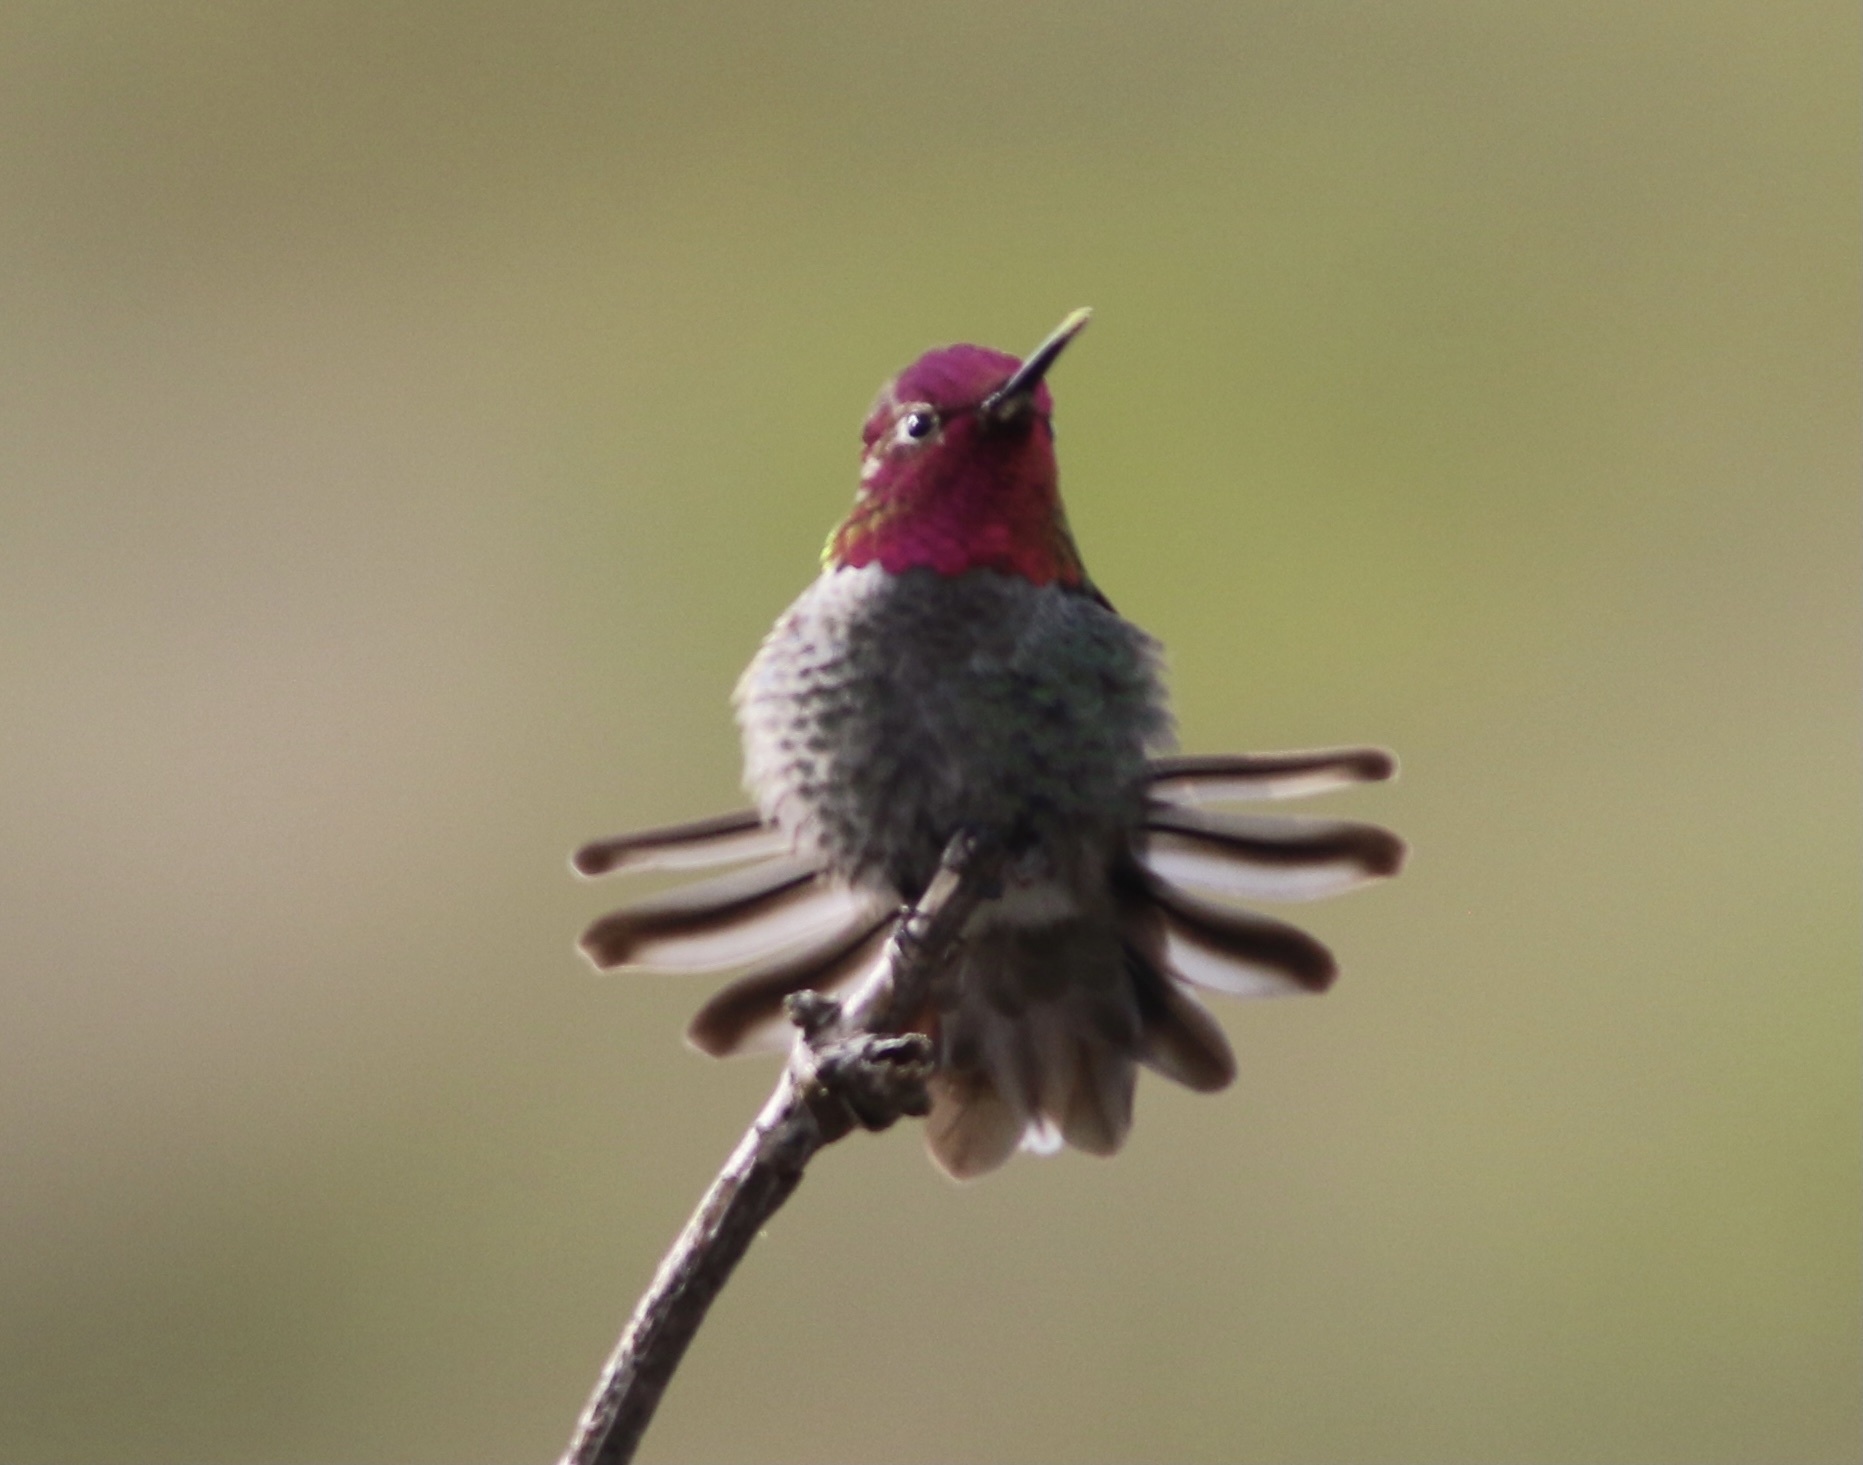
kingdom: Animalia
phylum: Chordata
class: Aves
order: Apodiformes
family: Trochilidae
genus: Calypte
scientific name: Calypte anna
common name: Anna's hummingbird
